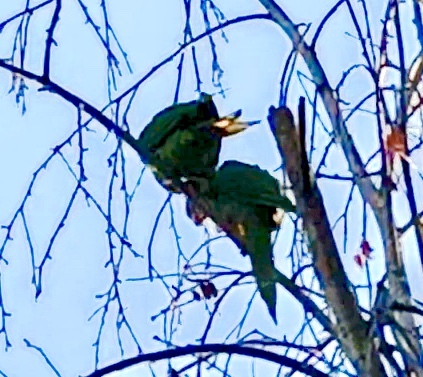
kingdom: Animalia
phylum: Chordata
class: Aves
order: Psittaciformes
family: Psittacidae
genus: Aratinga
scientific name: Aratinga acuticaudata
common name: Blue-crowned parakeet
